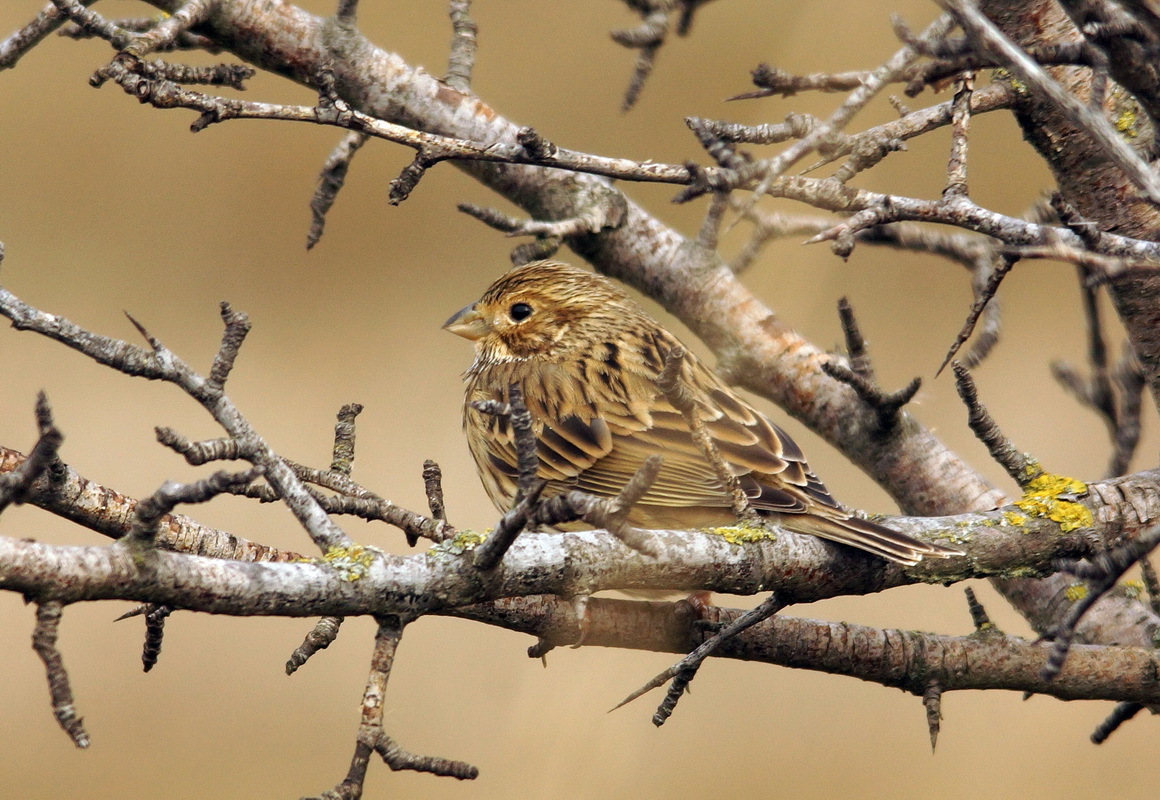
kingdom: Animalia
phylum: Chordata
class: Aves
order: Passeriformes
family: Emberizidae
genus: Emberiza
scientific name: Emberiza calandra
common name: Corn bunting
